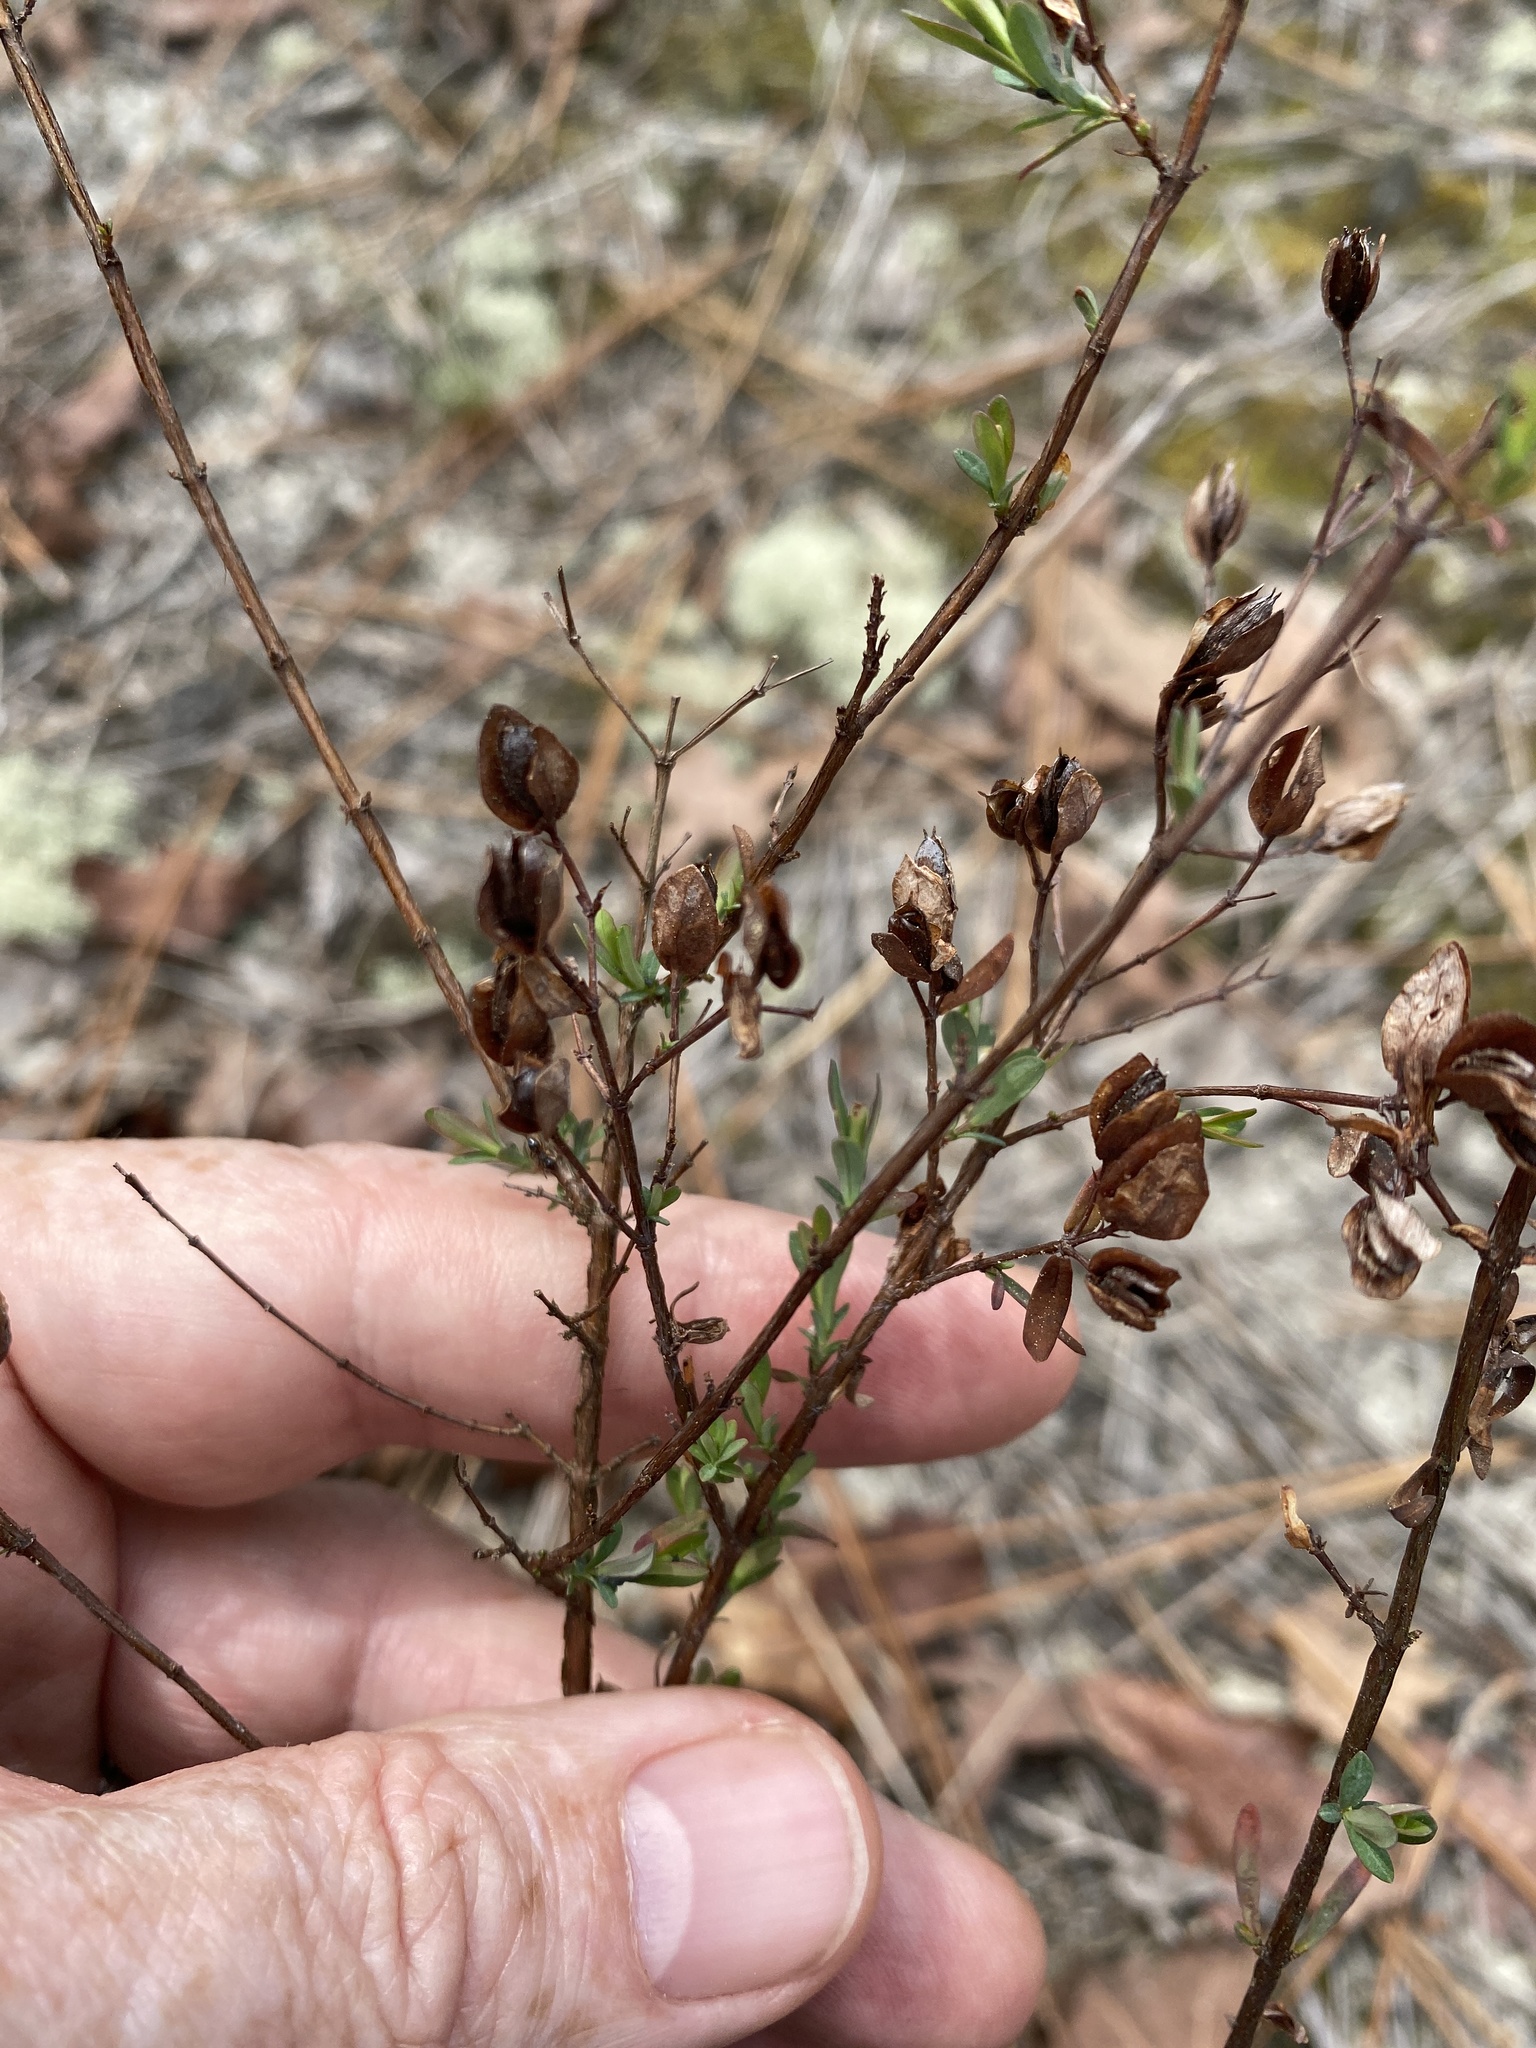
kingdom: Plantae
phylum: Tracheophyta
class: Magnoliopsida
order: Malpighiales
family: Hypericaceae
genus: Hypericum
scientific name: Hypericum hypericoides
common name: St. andrew's cross
